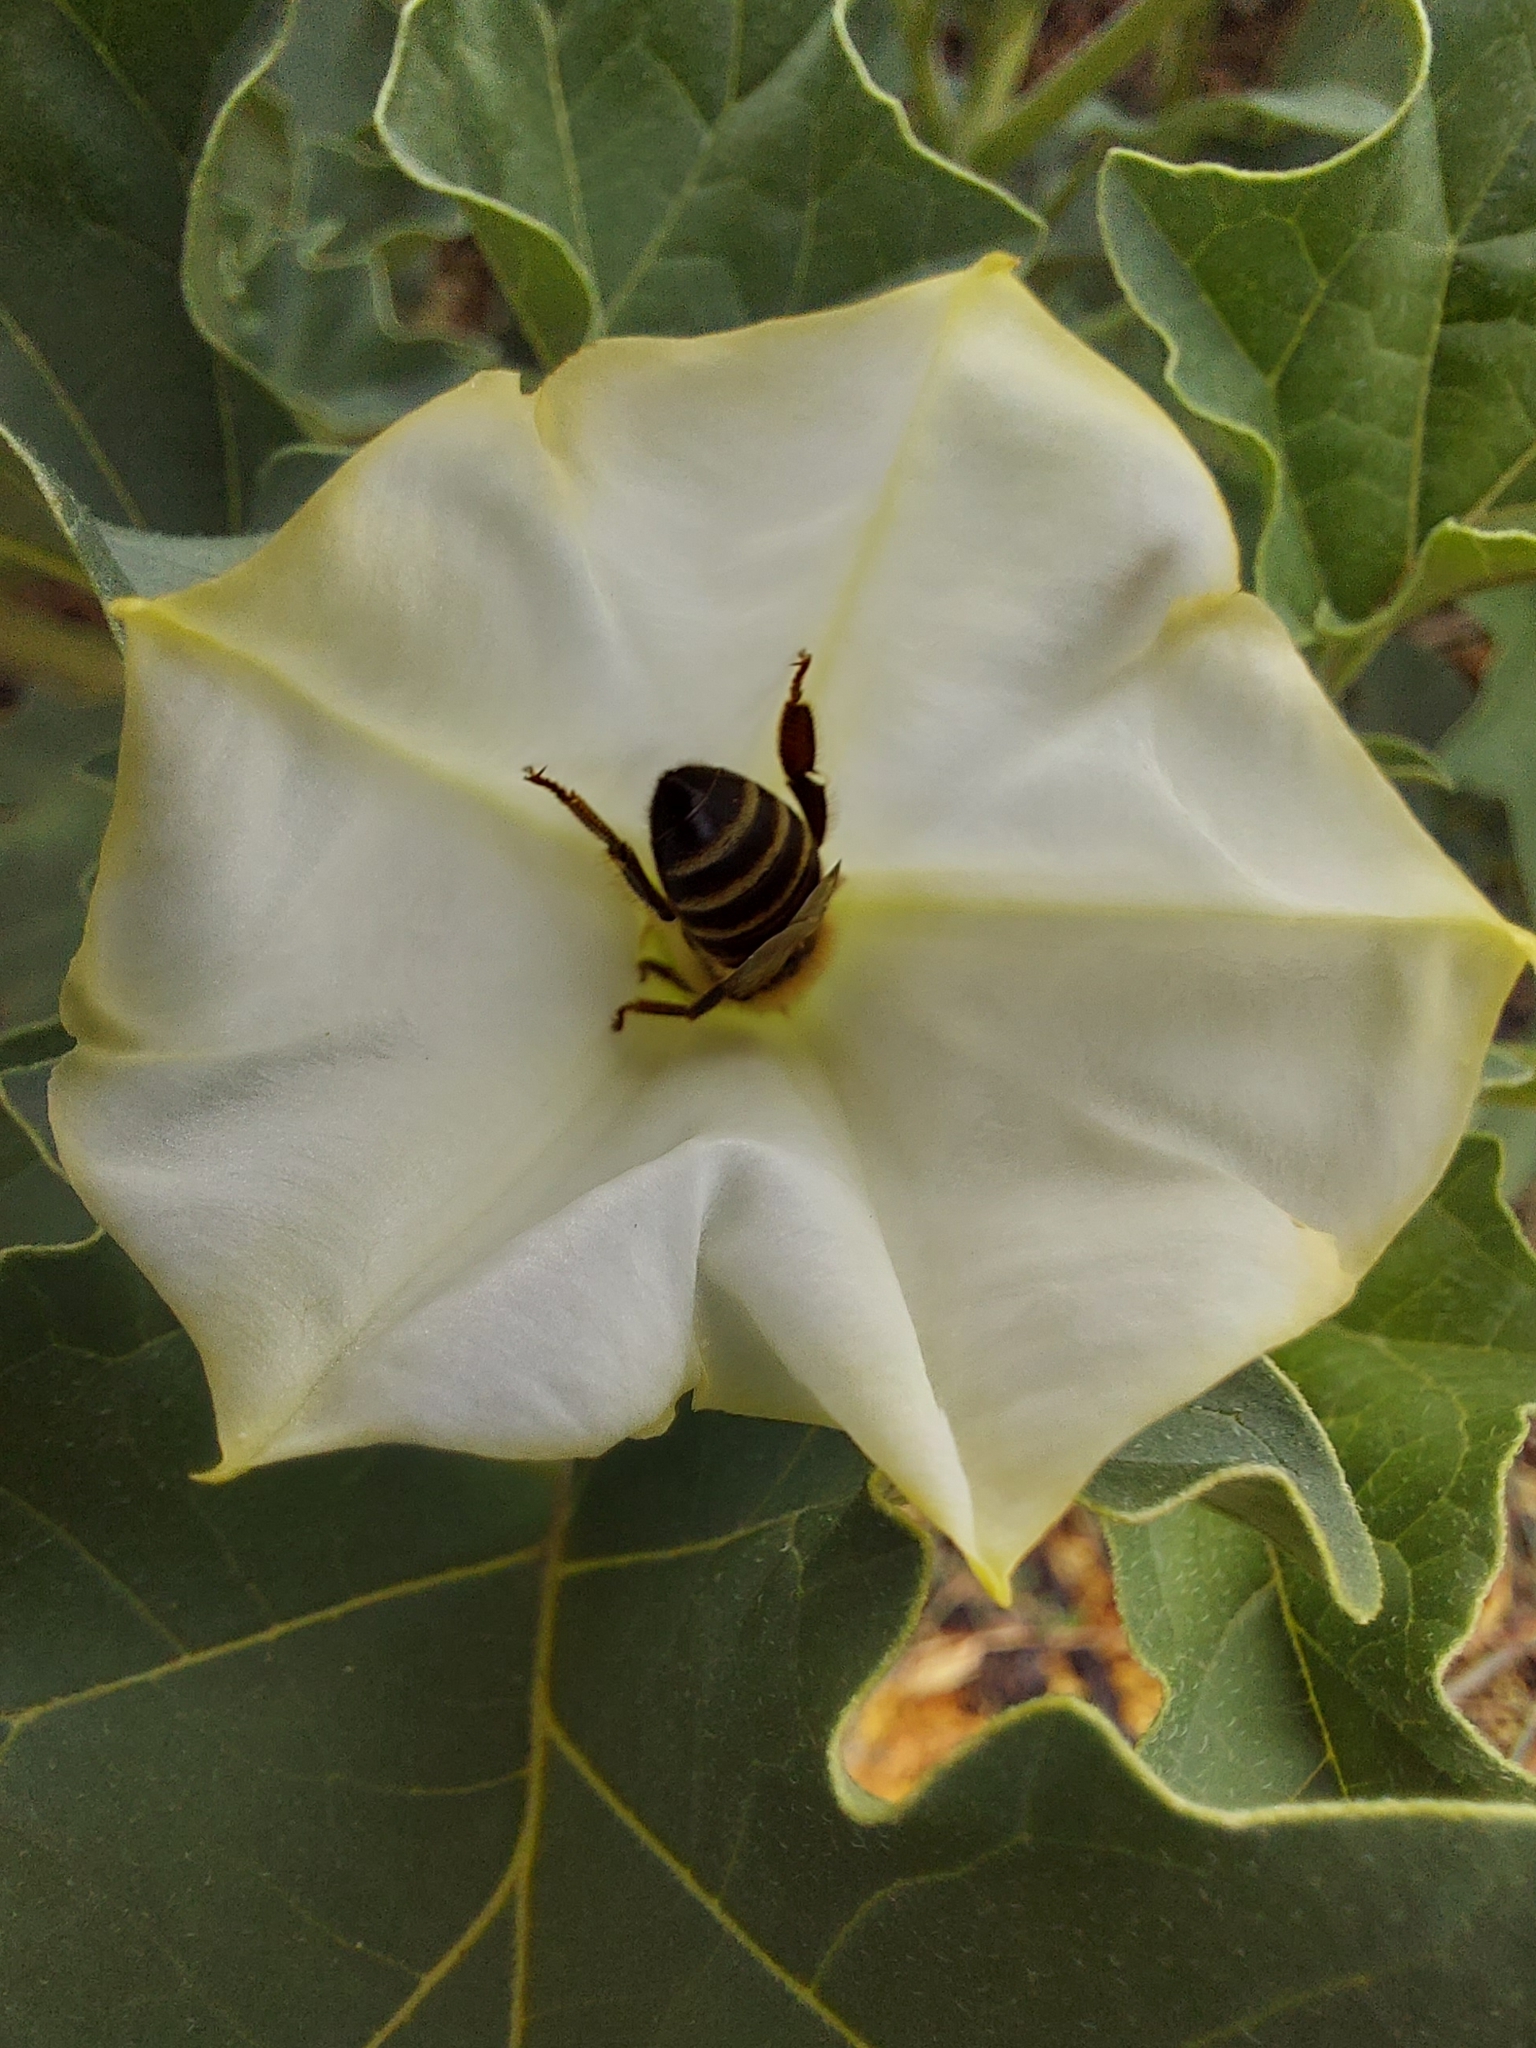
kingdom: Plantae
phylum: Tracheophyta
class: Magnoliopsida
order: Solanales
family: Solanaceae
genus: Datura
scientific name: Datura ferox
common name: Angel's-trumpets
